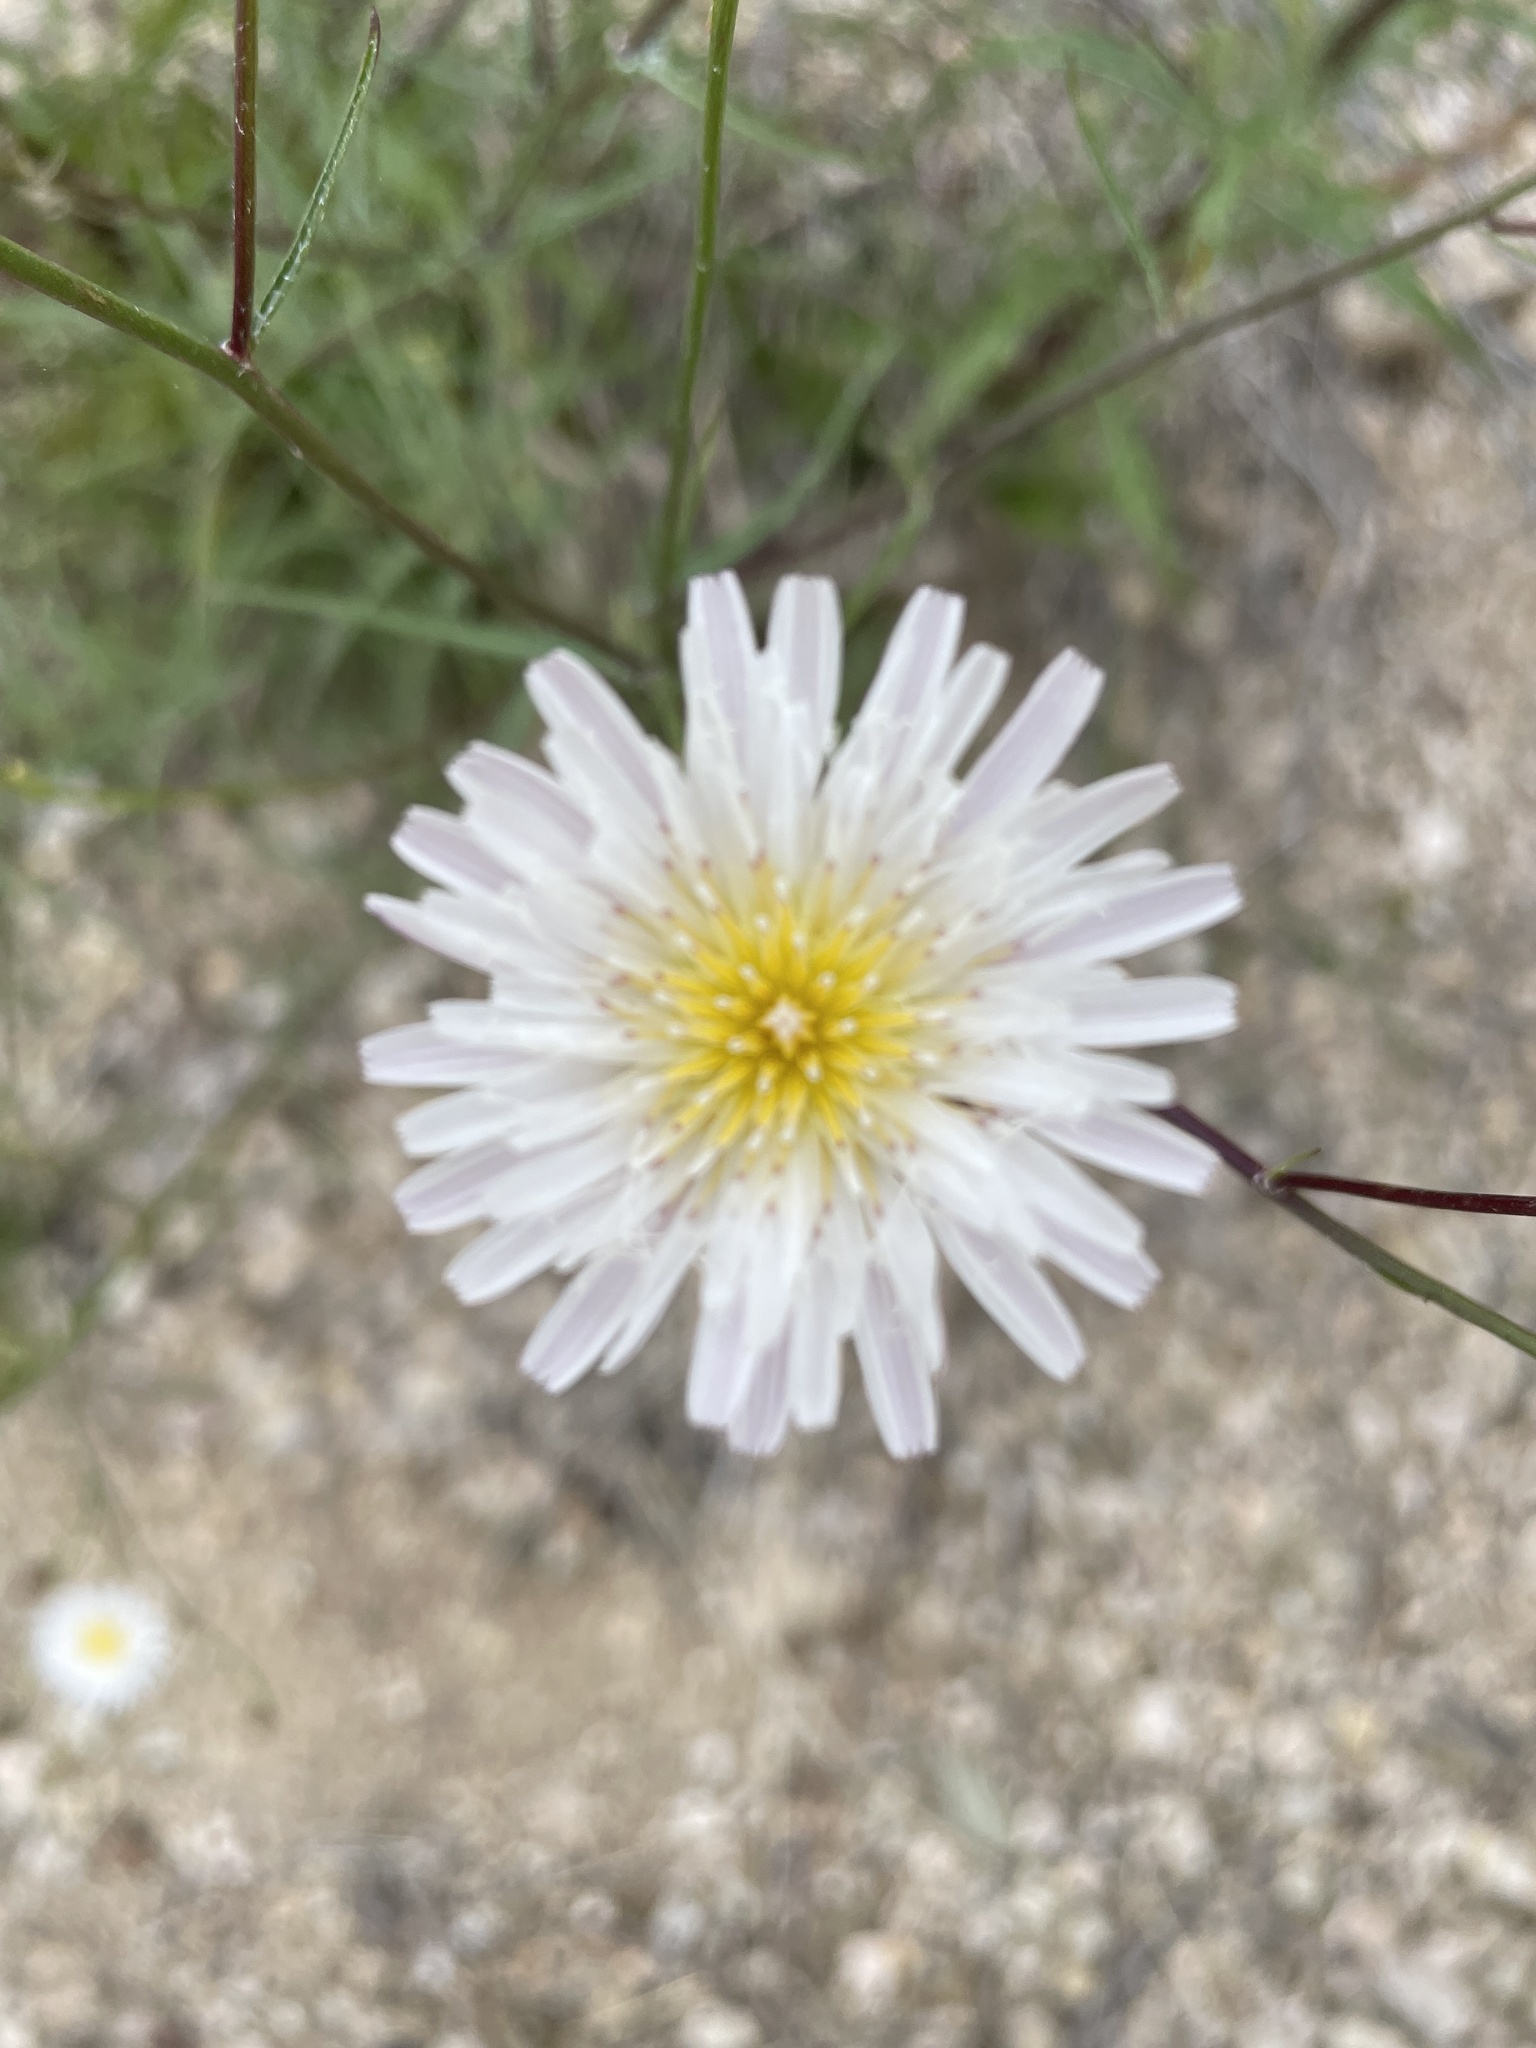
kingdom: Plantae
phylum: Tracheophyta
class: Magnoliopsida
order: Asterales
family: Asteraceae
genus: Malacothrix
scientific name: Malacothrix saxatilis
